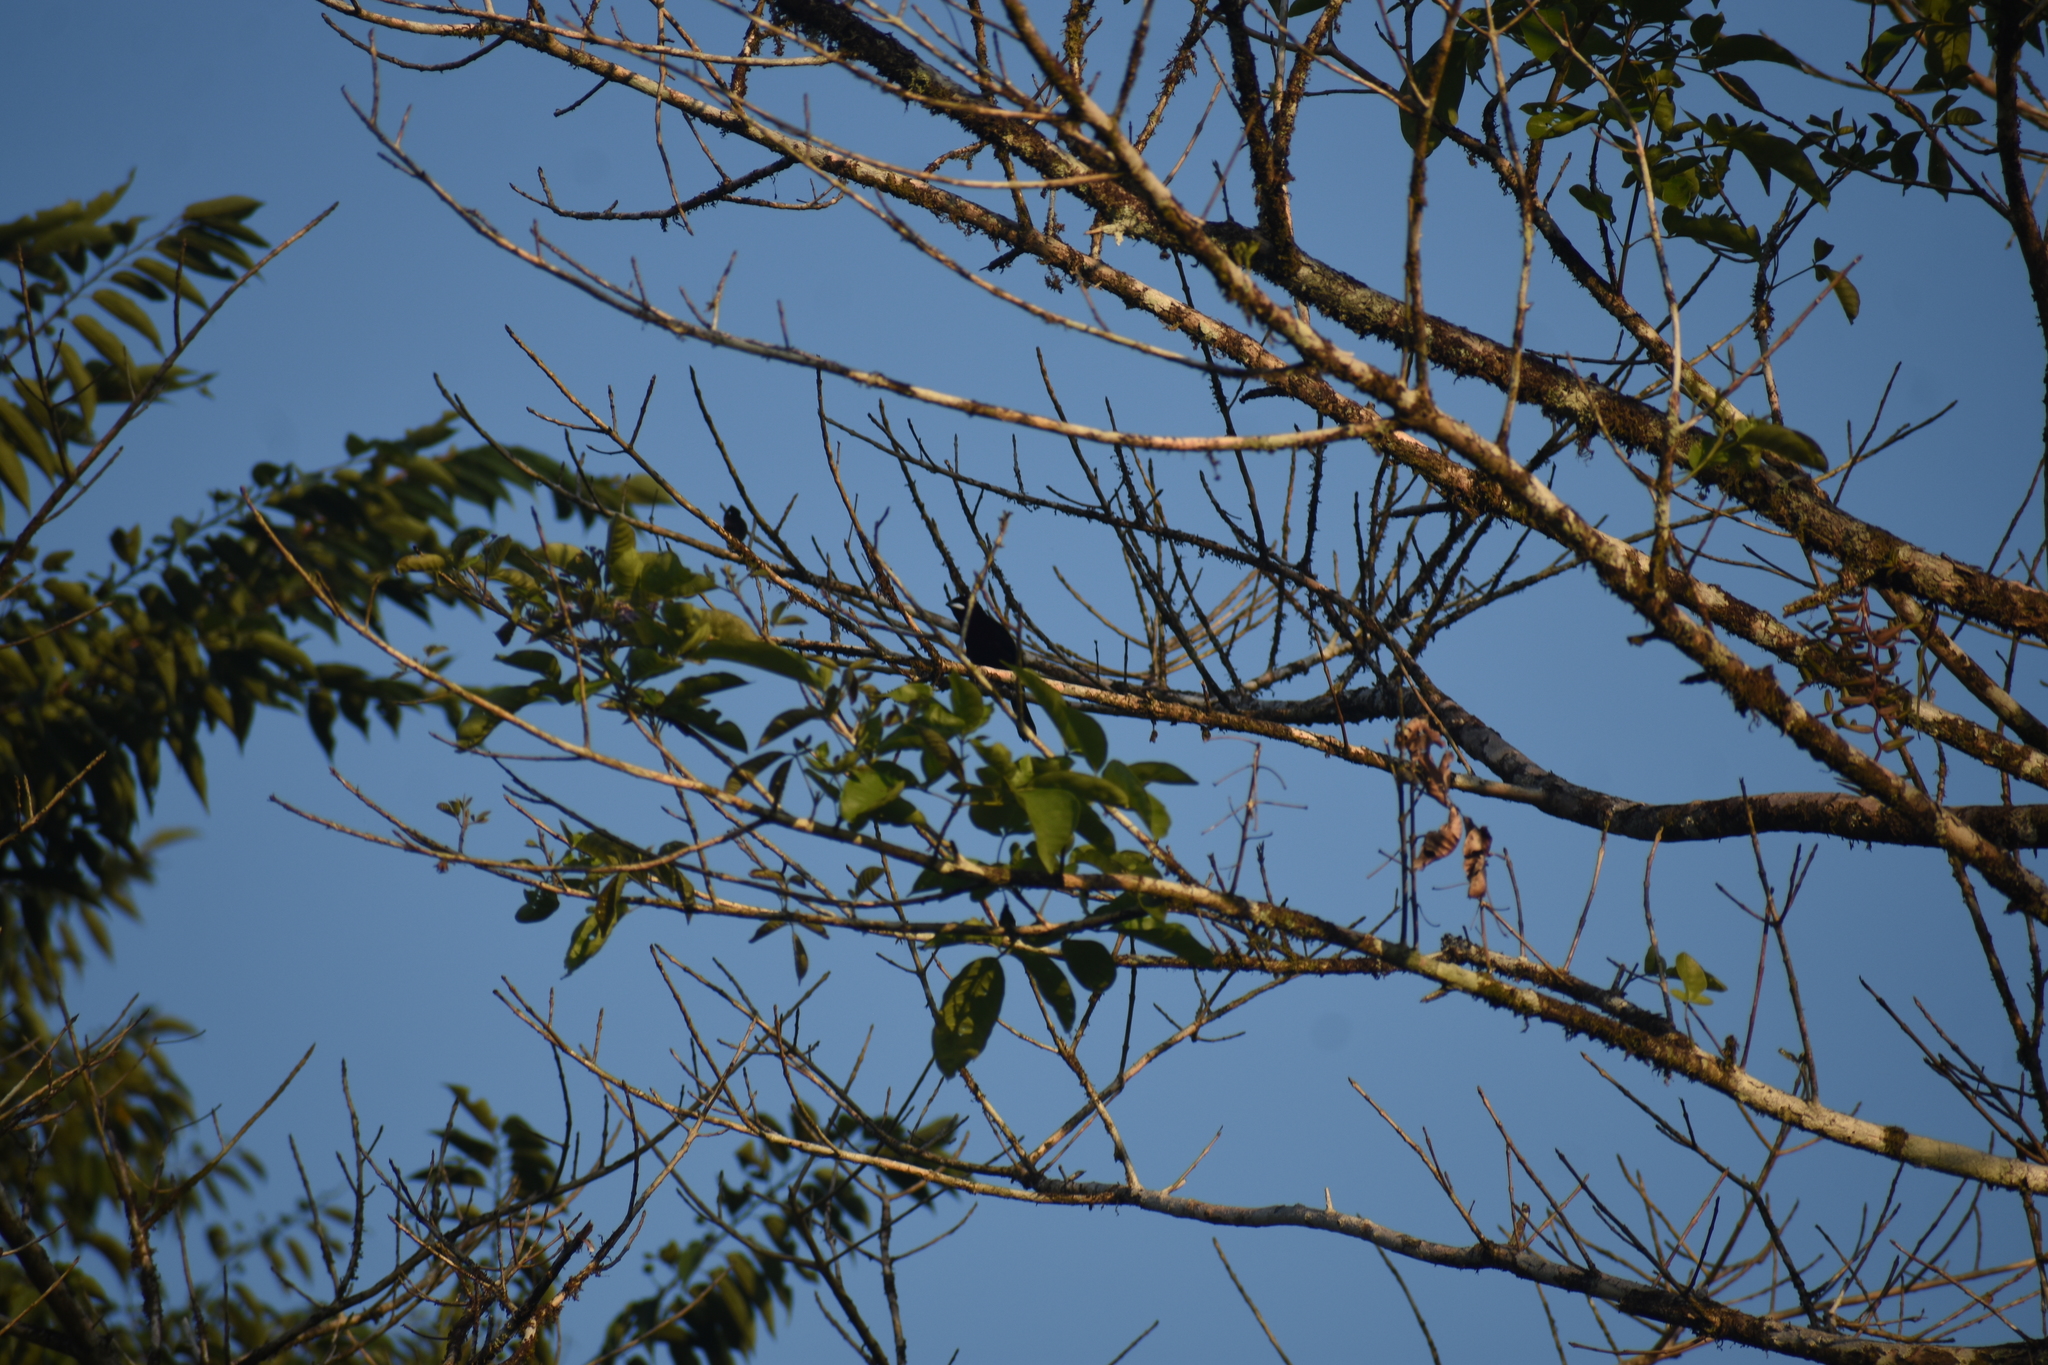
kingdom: Animalia
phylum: Chordata
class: Aves
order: Passeriformes
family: Thraupidae
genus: Ramphocelus
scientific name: Ramphocelus carbo
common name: Silver-beaked tanager
